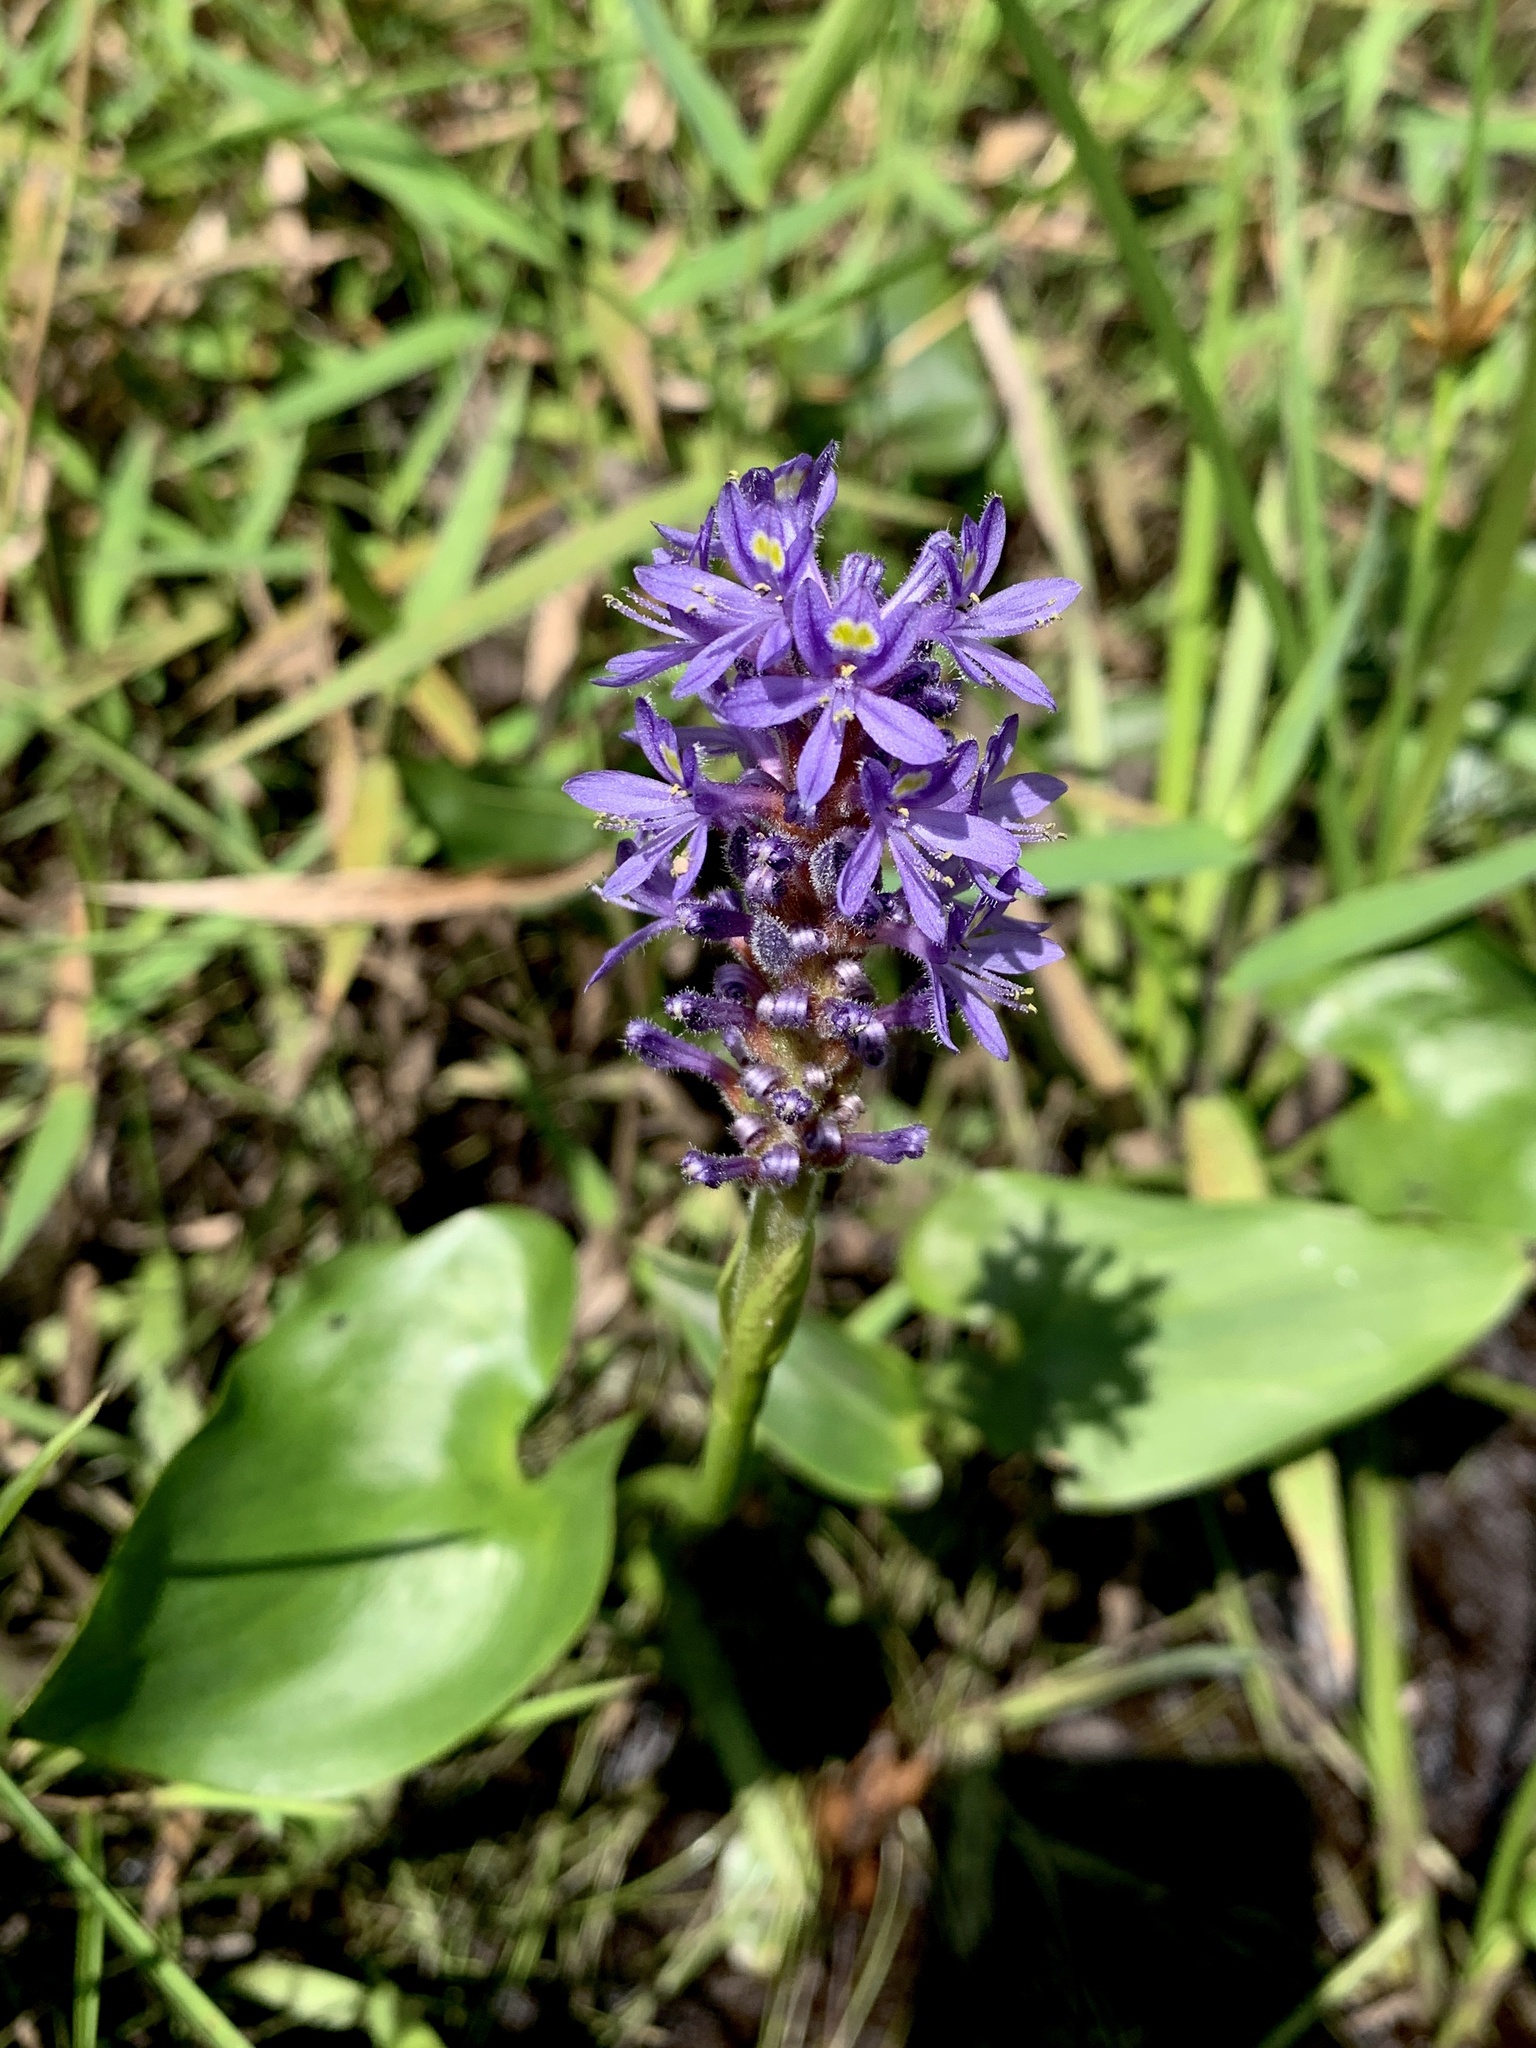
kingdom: Plantae
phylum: Tracheophyta
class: Liliopsida
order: Commelinales
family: Pontederiaceae
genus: Pontederia
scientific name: Pontederia cordata
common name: Pickerelweed
